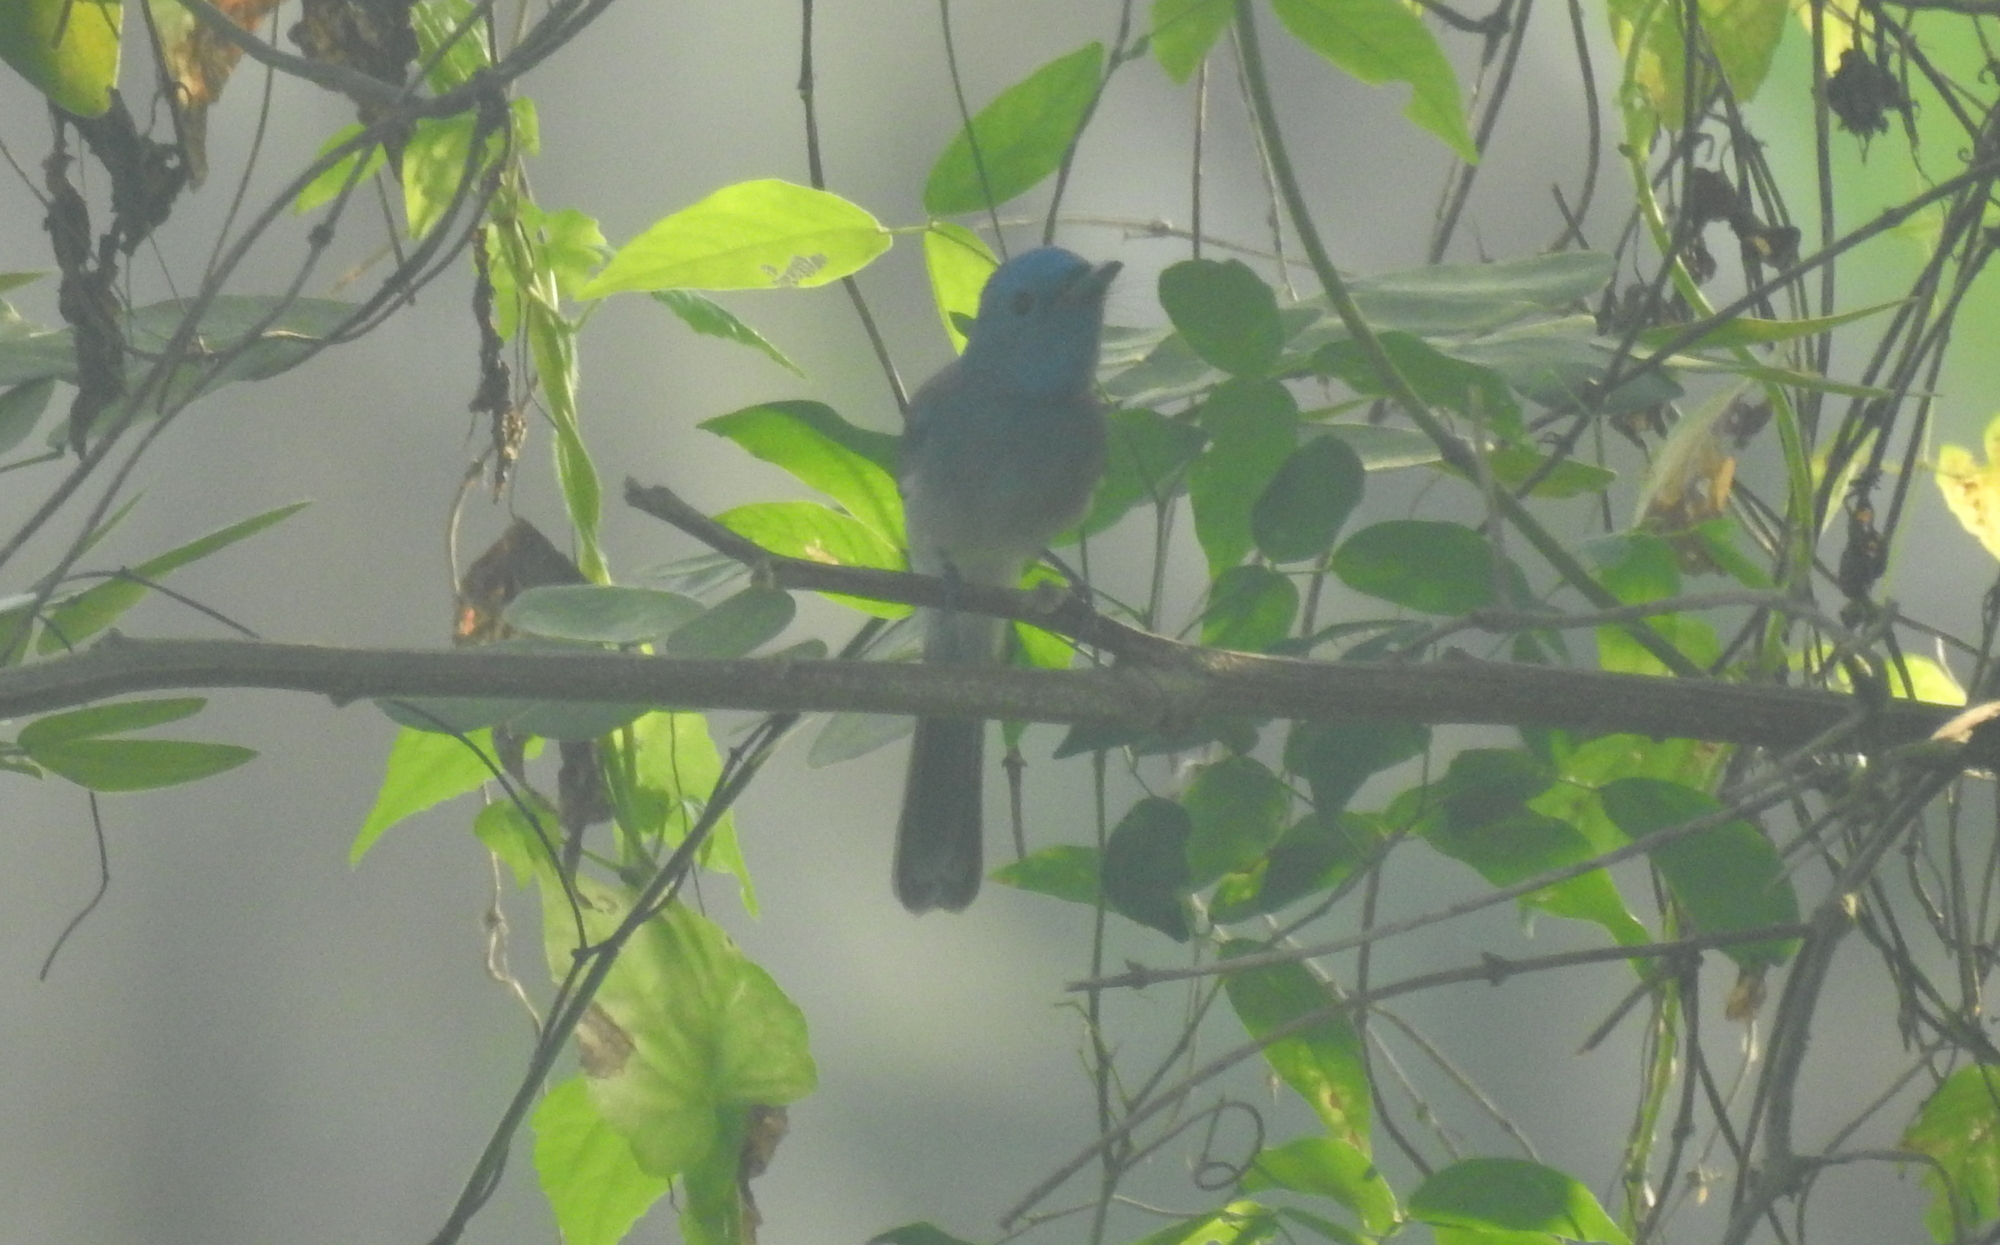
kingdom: Animalia
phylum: Chordata
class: Aves
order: Passeriformes
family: Monarchidae
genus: Hypothymis
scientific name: Hypothymis azurea
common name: Black-naped monarch
